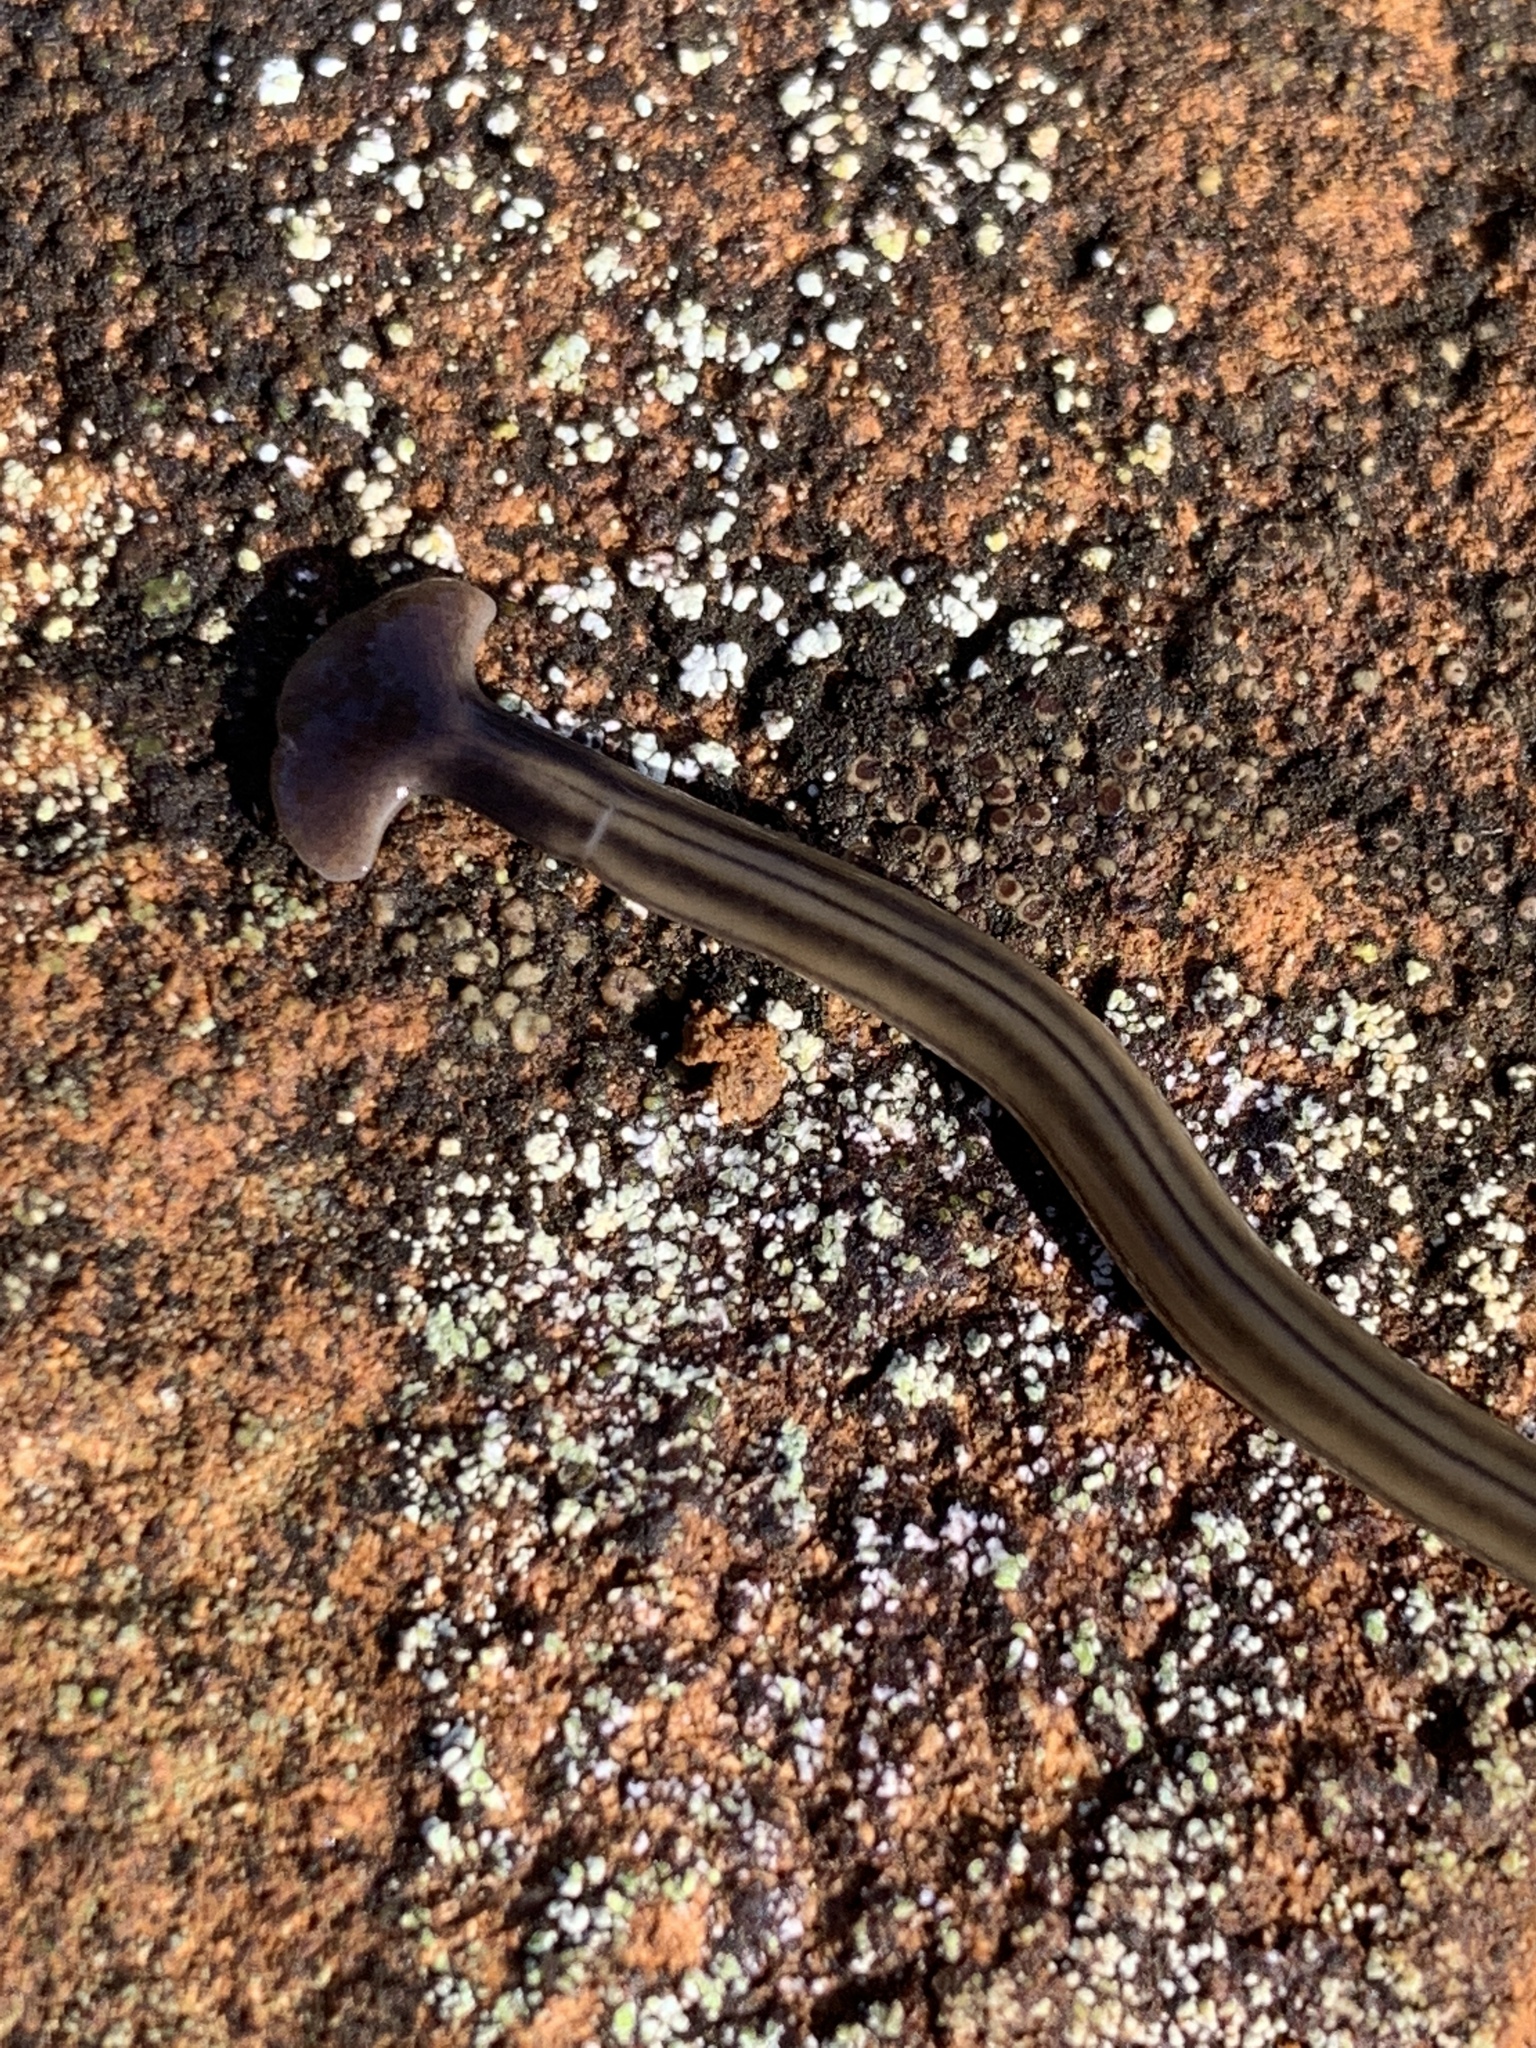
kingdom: Animalia
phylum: Platyhelminthes
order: Tricladida
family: Geoplanidae
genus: Bipalium
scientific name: Bipalium kewense
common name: Hammerhead flatworm
